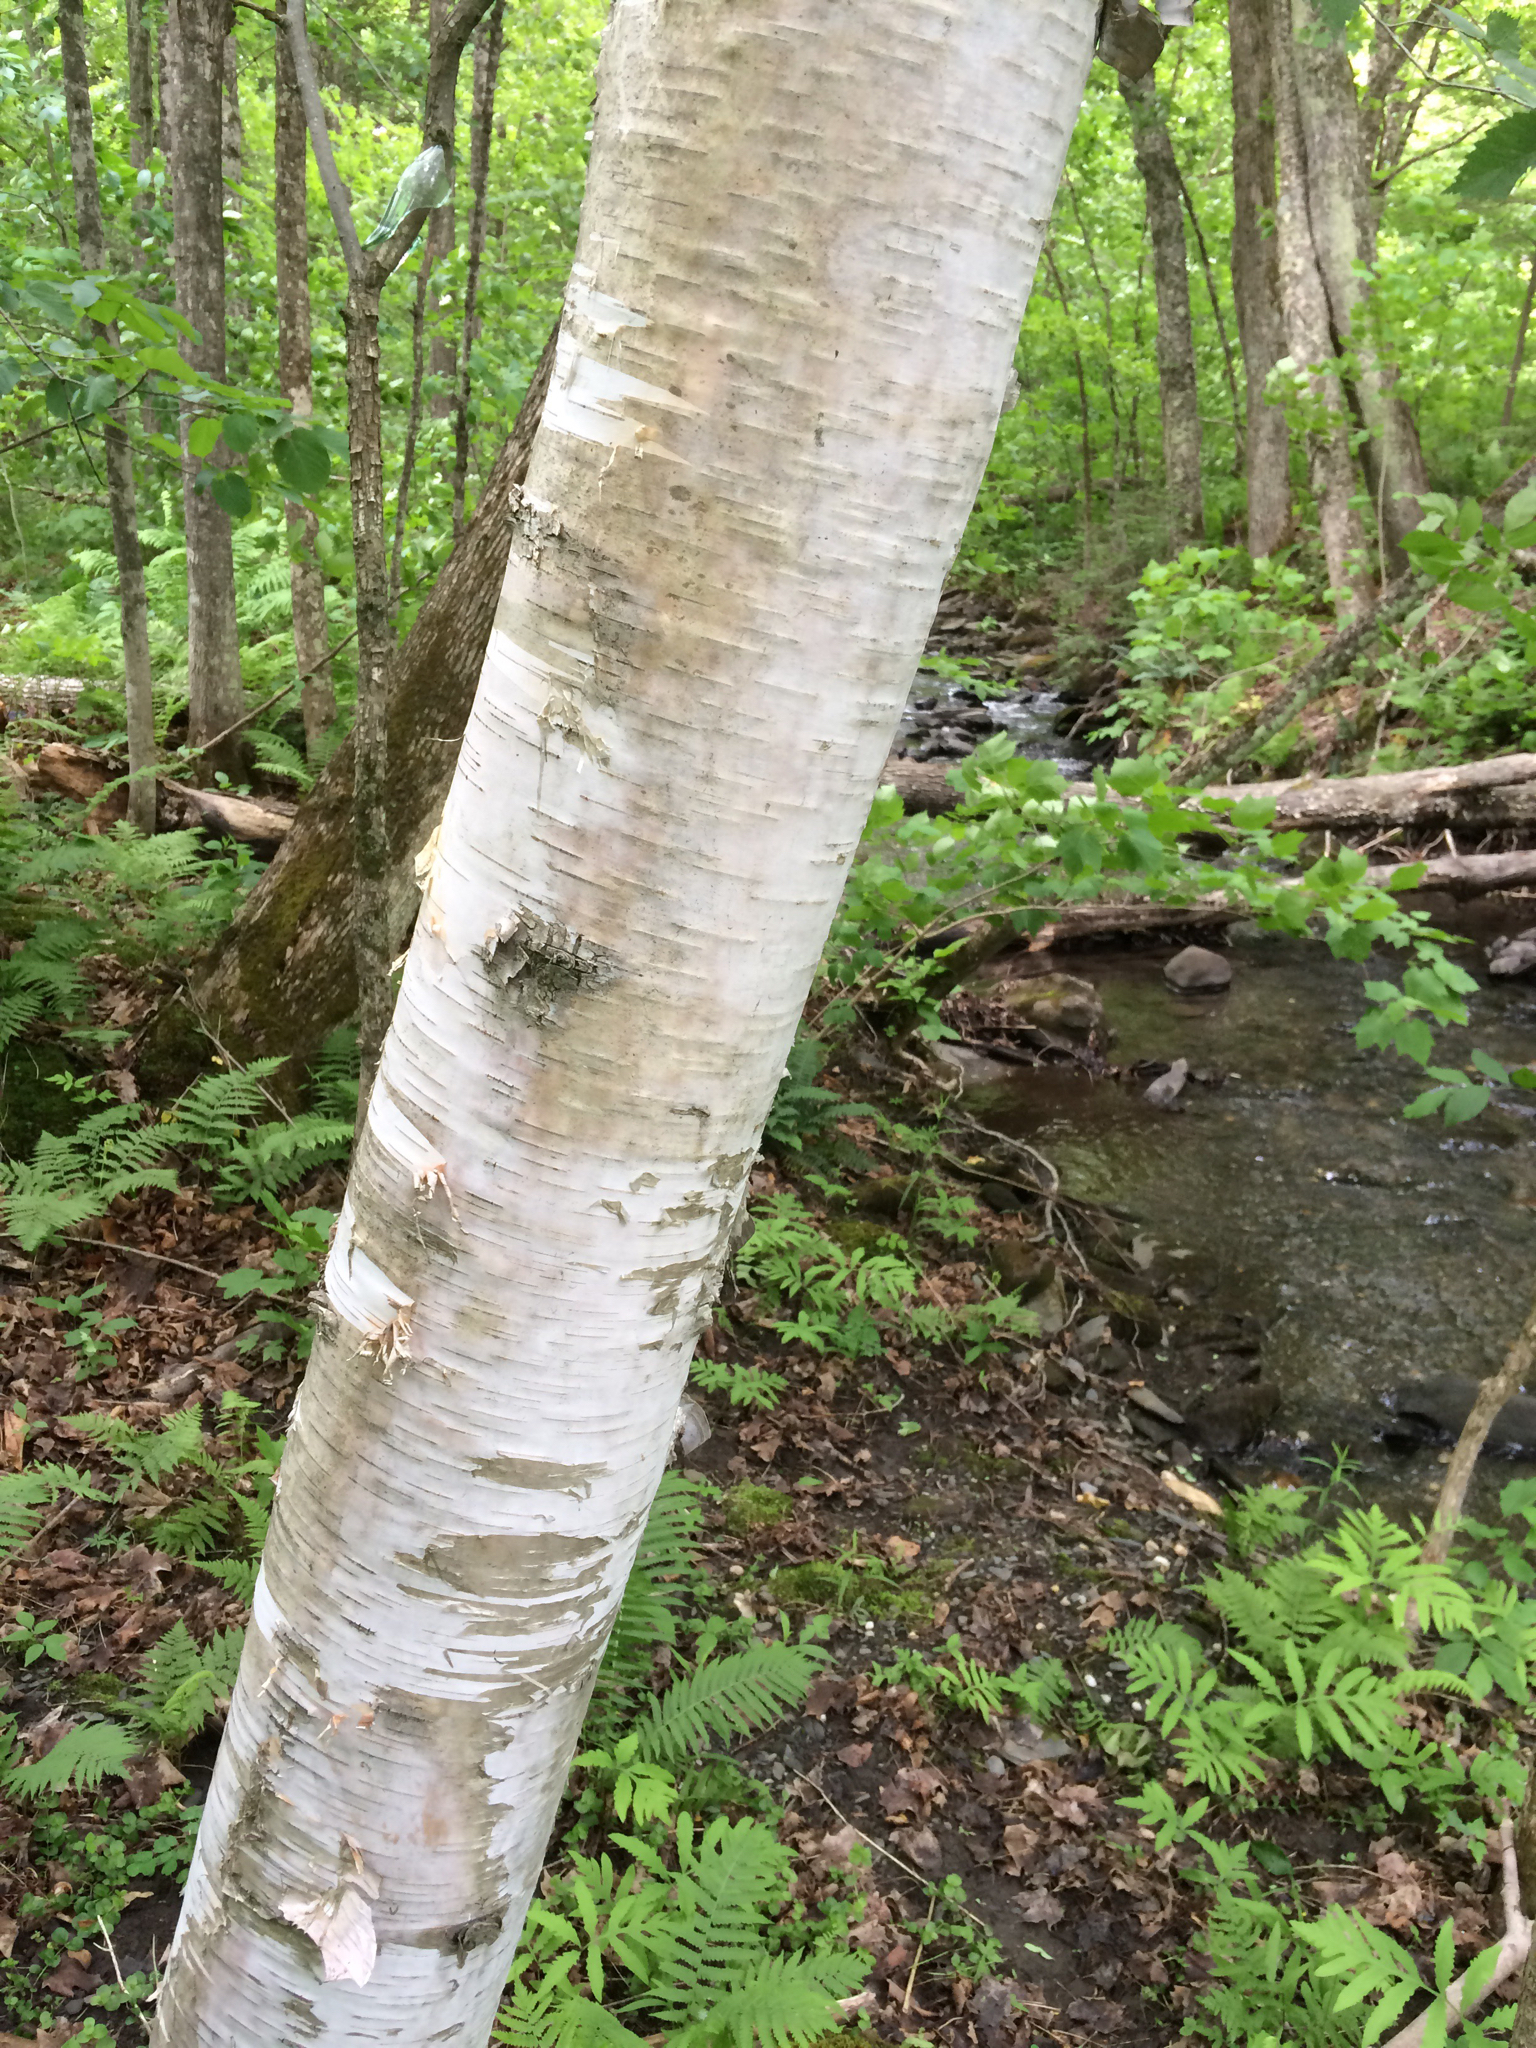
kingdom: Plantae
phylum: Tracheophyta
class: Magnoliopsida
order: Fagales
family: Betulaceae
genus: Betula
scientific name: Betula papyrifera
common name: Paper birch
